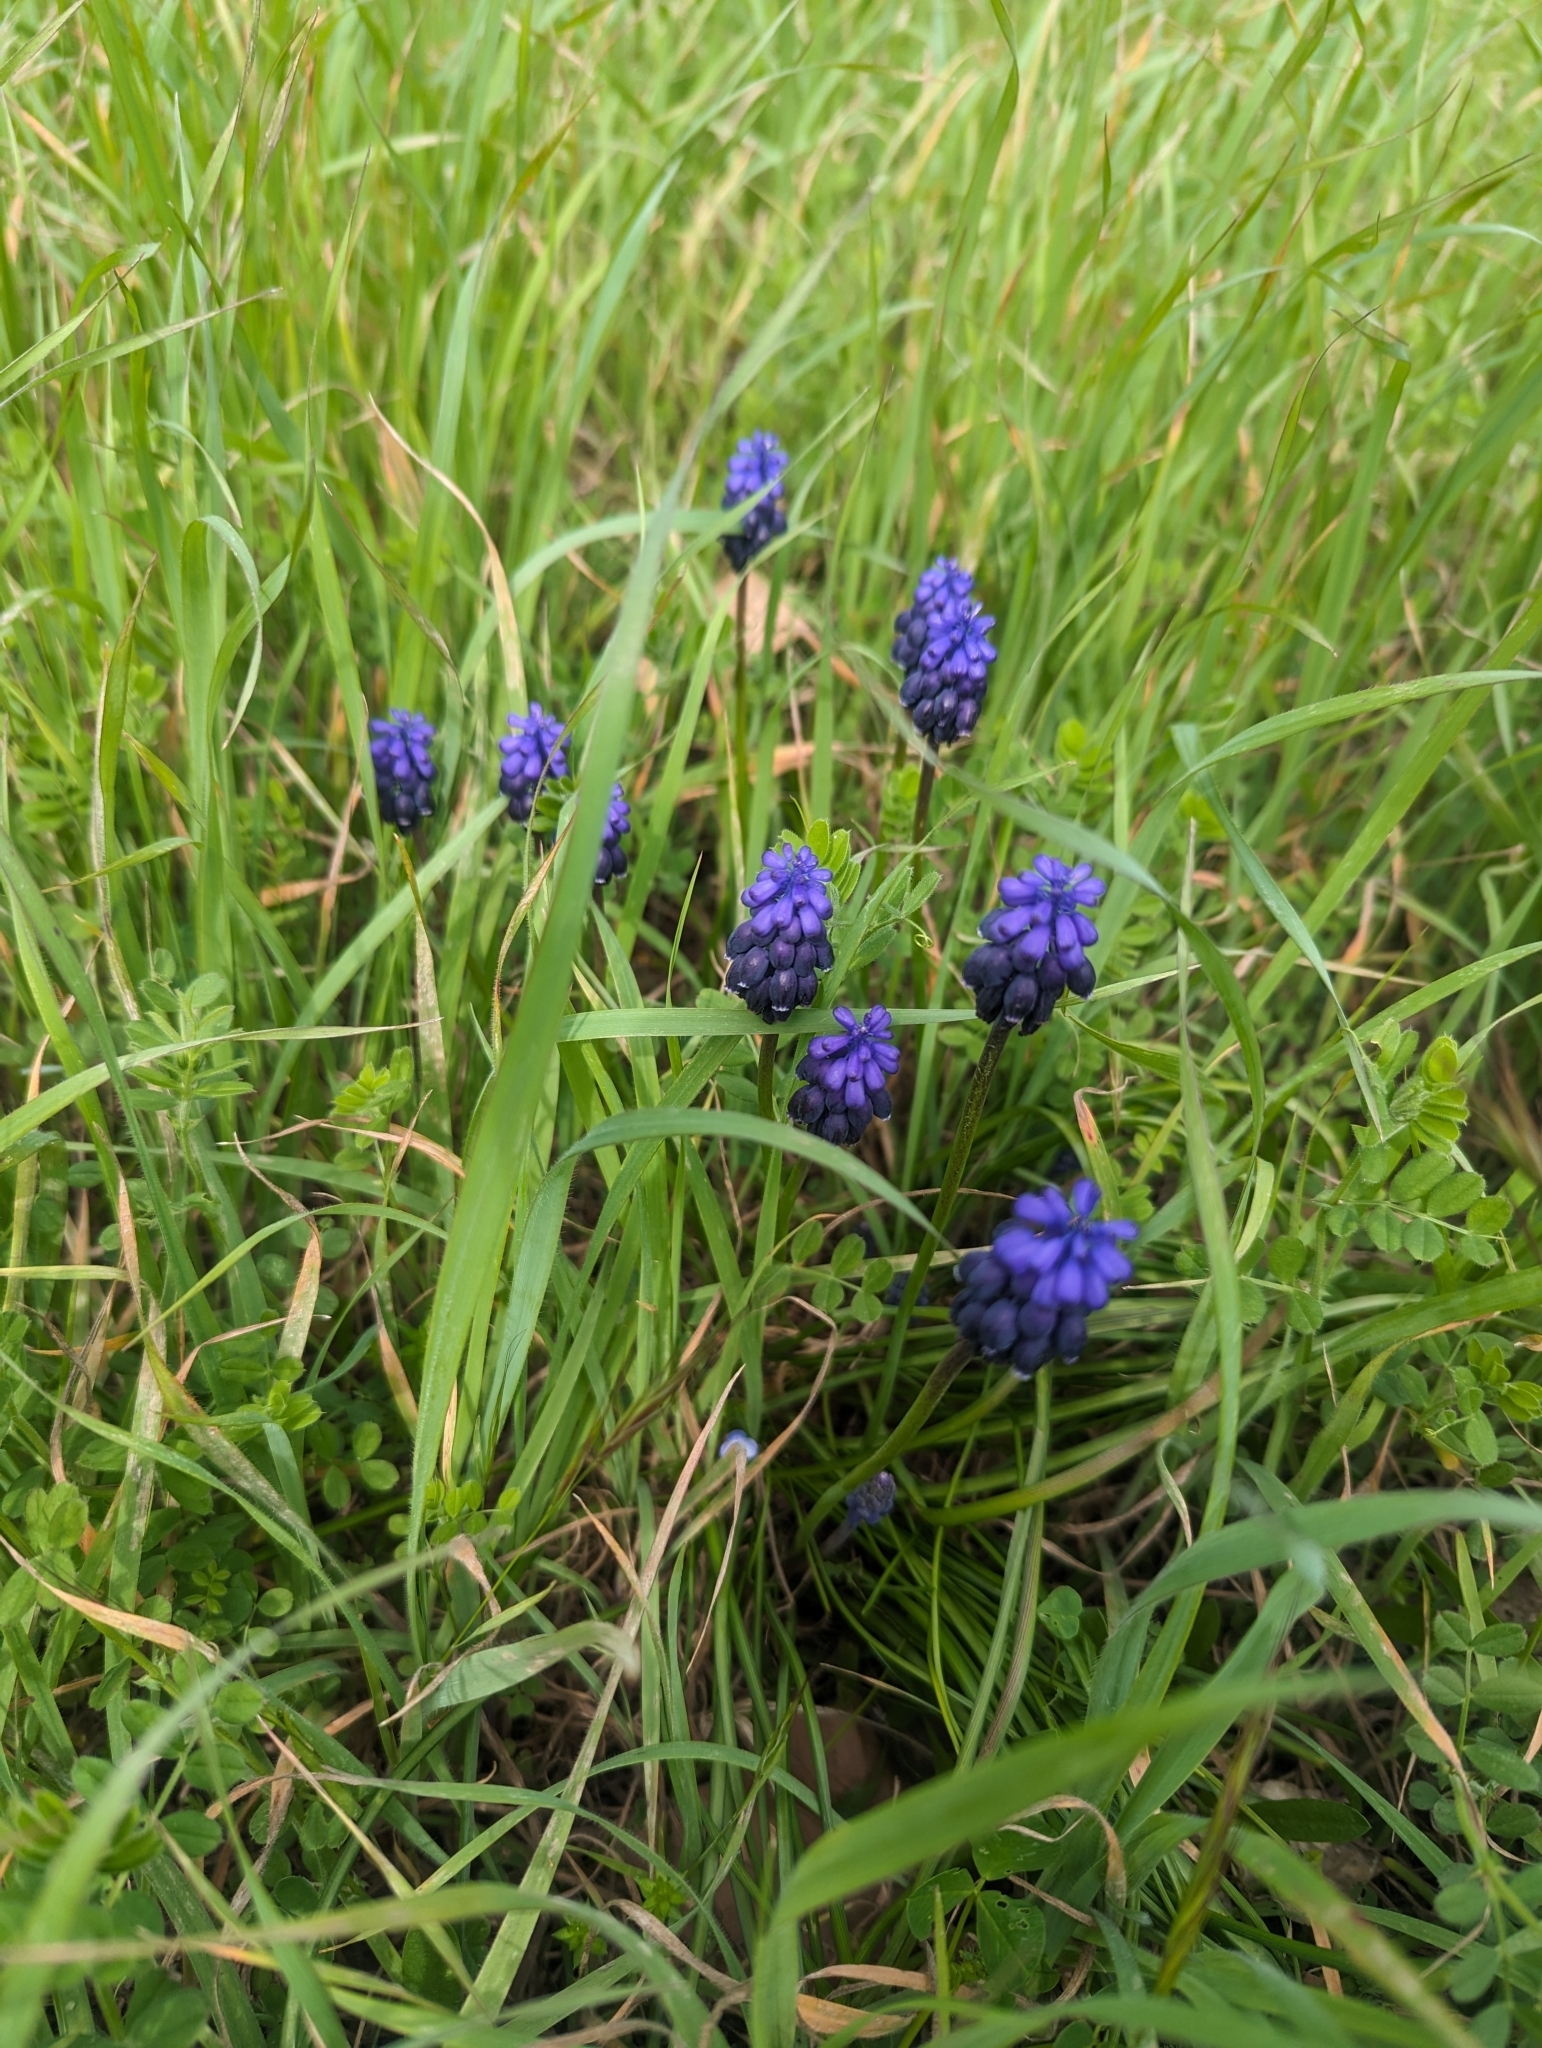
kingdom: Plantae
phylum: Tracheophyta
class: Liliopsida
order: Asparagales
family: Asparagaceae
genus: Muscari
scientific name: Muscari neglectum
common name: Grape-hyacinth
